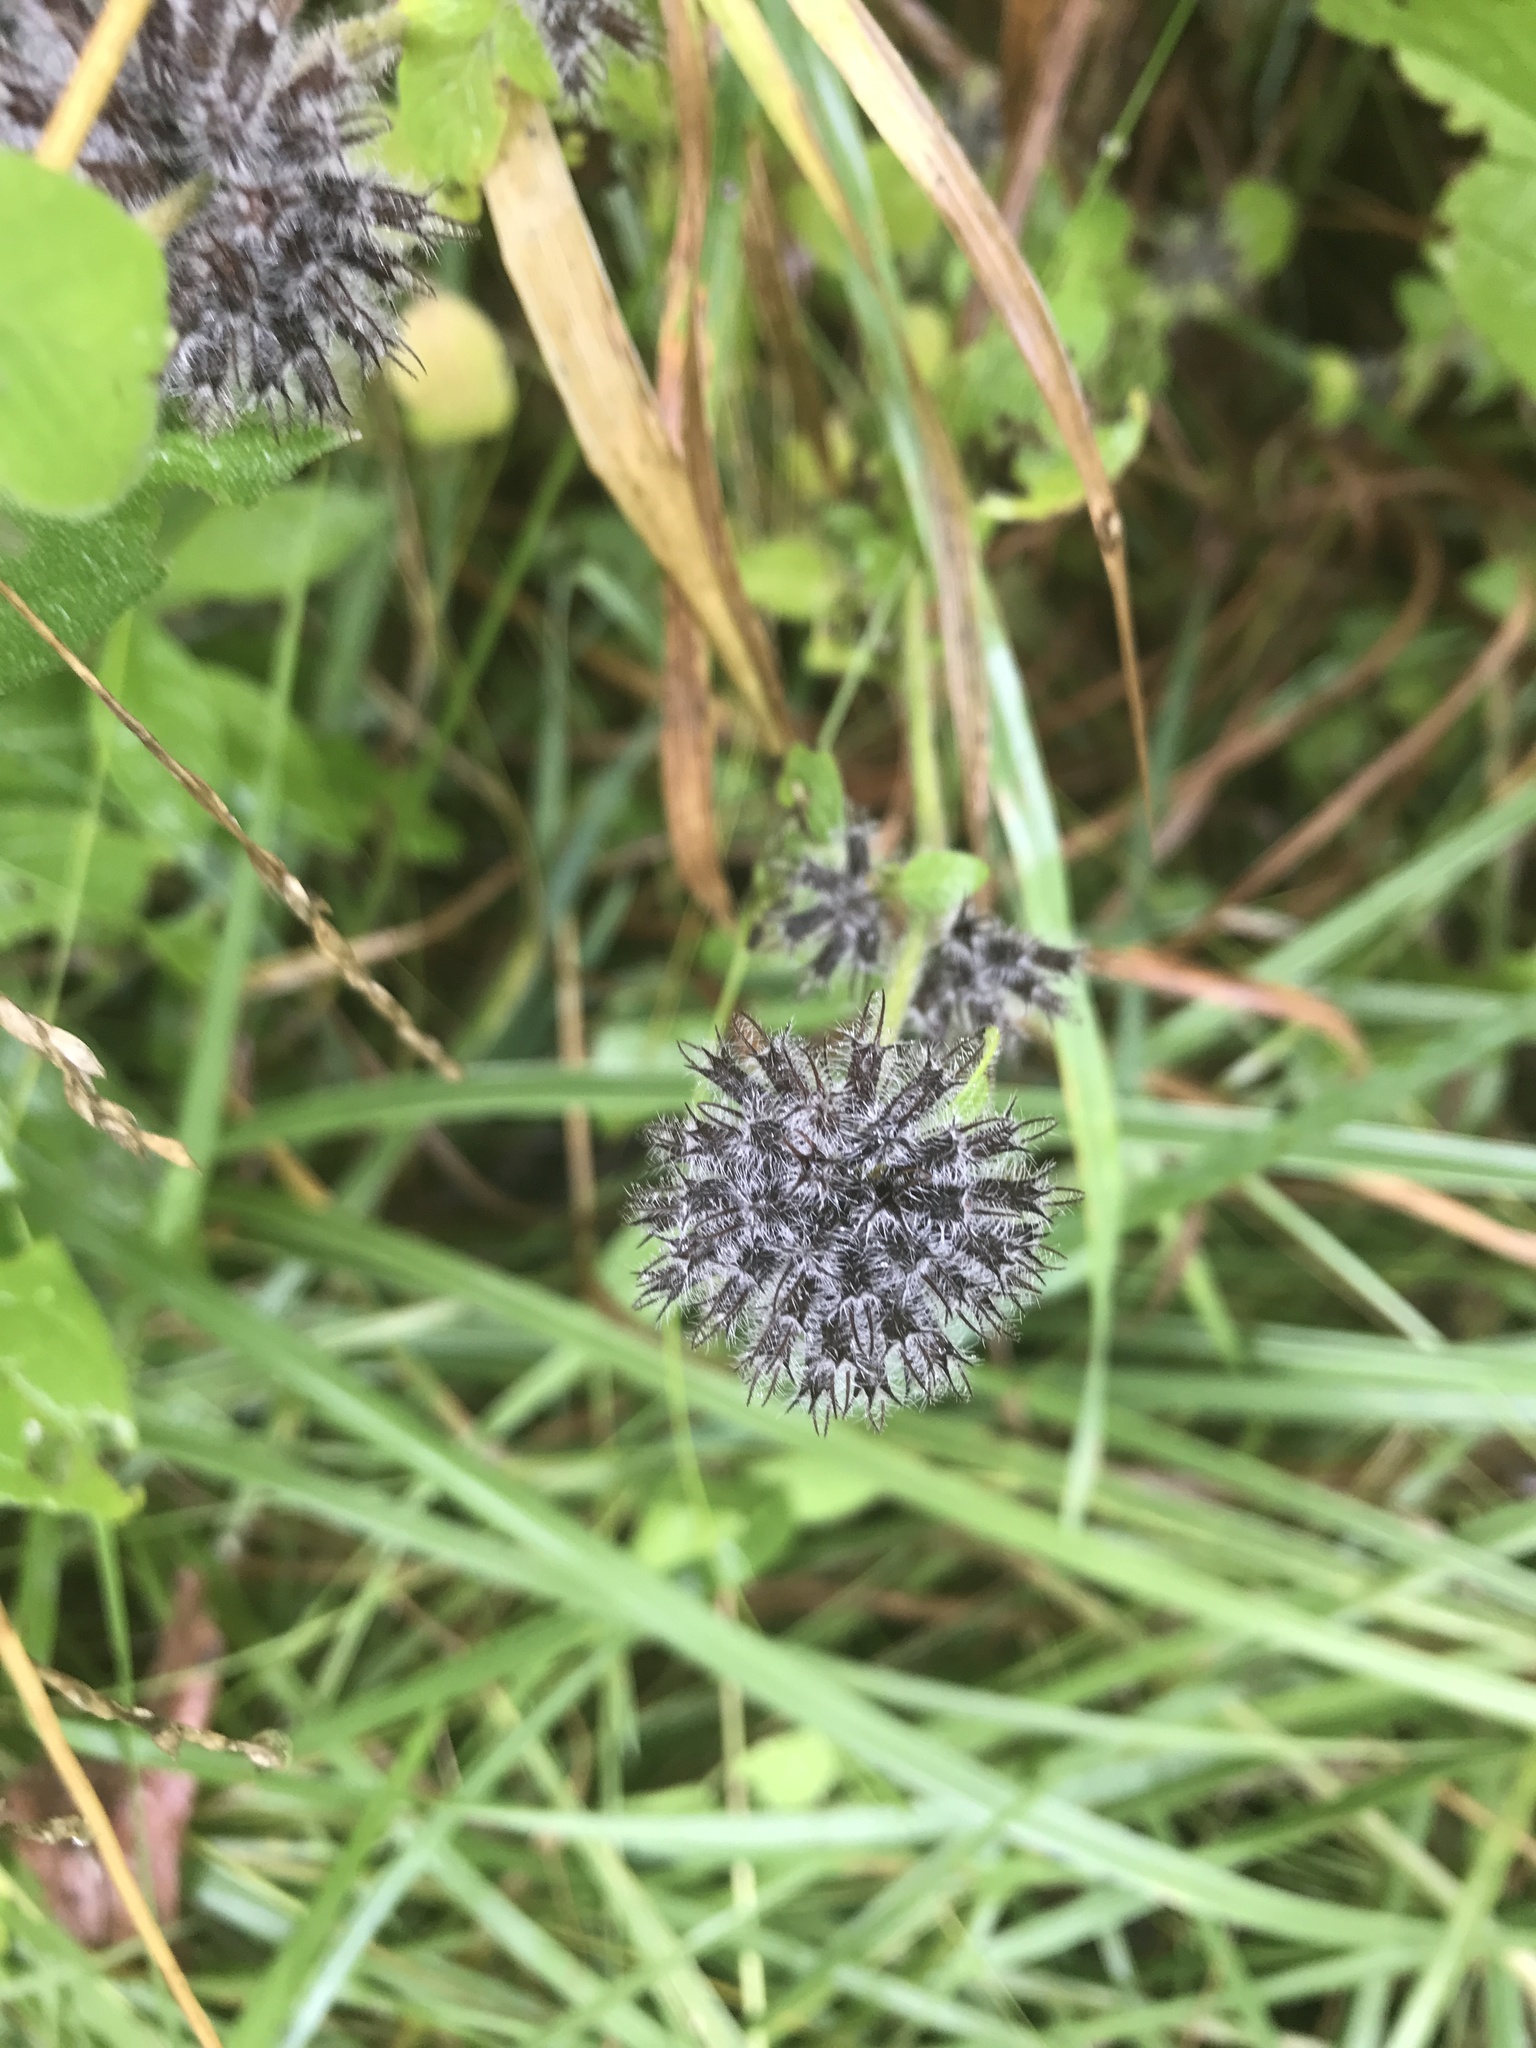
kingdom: Plantae
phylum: Tracheophyta
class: Magnoliopsida
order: Lamiales
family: Lamiaceae
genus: Clinopodium
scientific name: Clinopodium vulgare
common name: Wild basil
